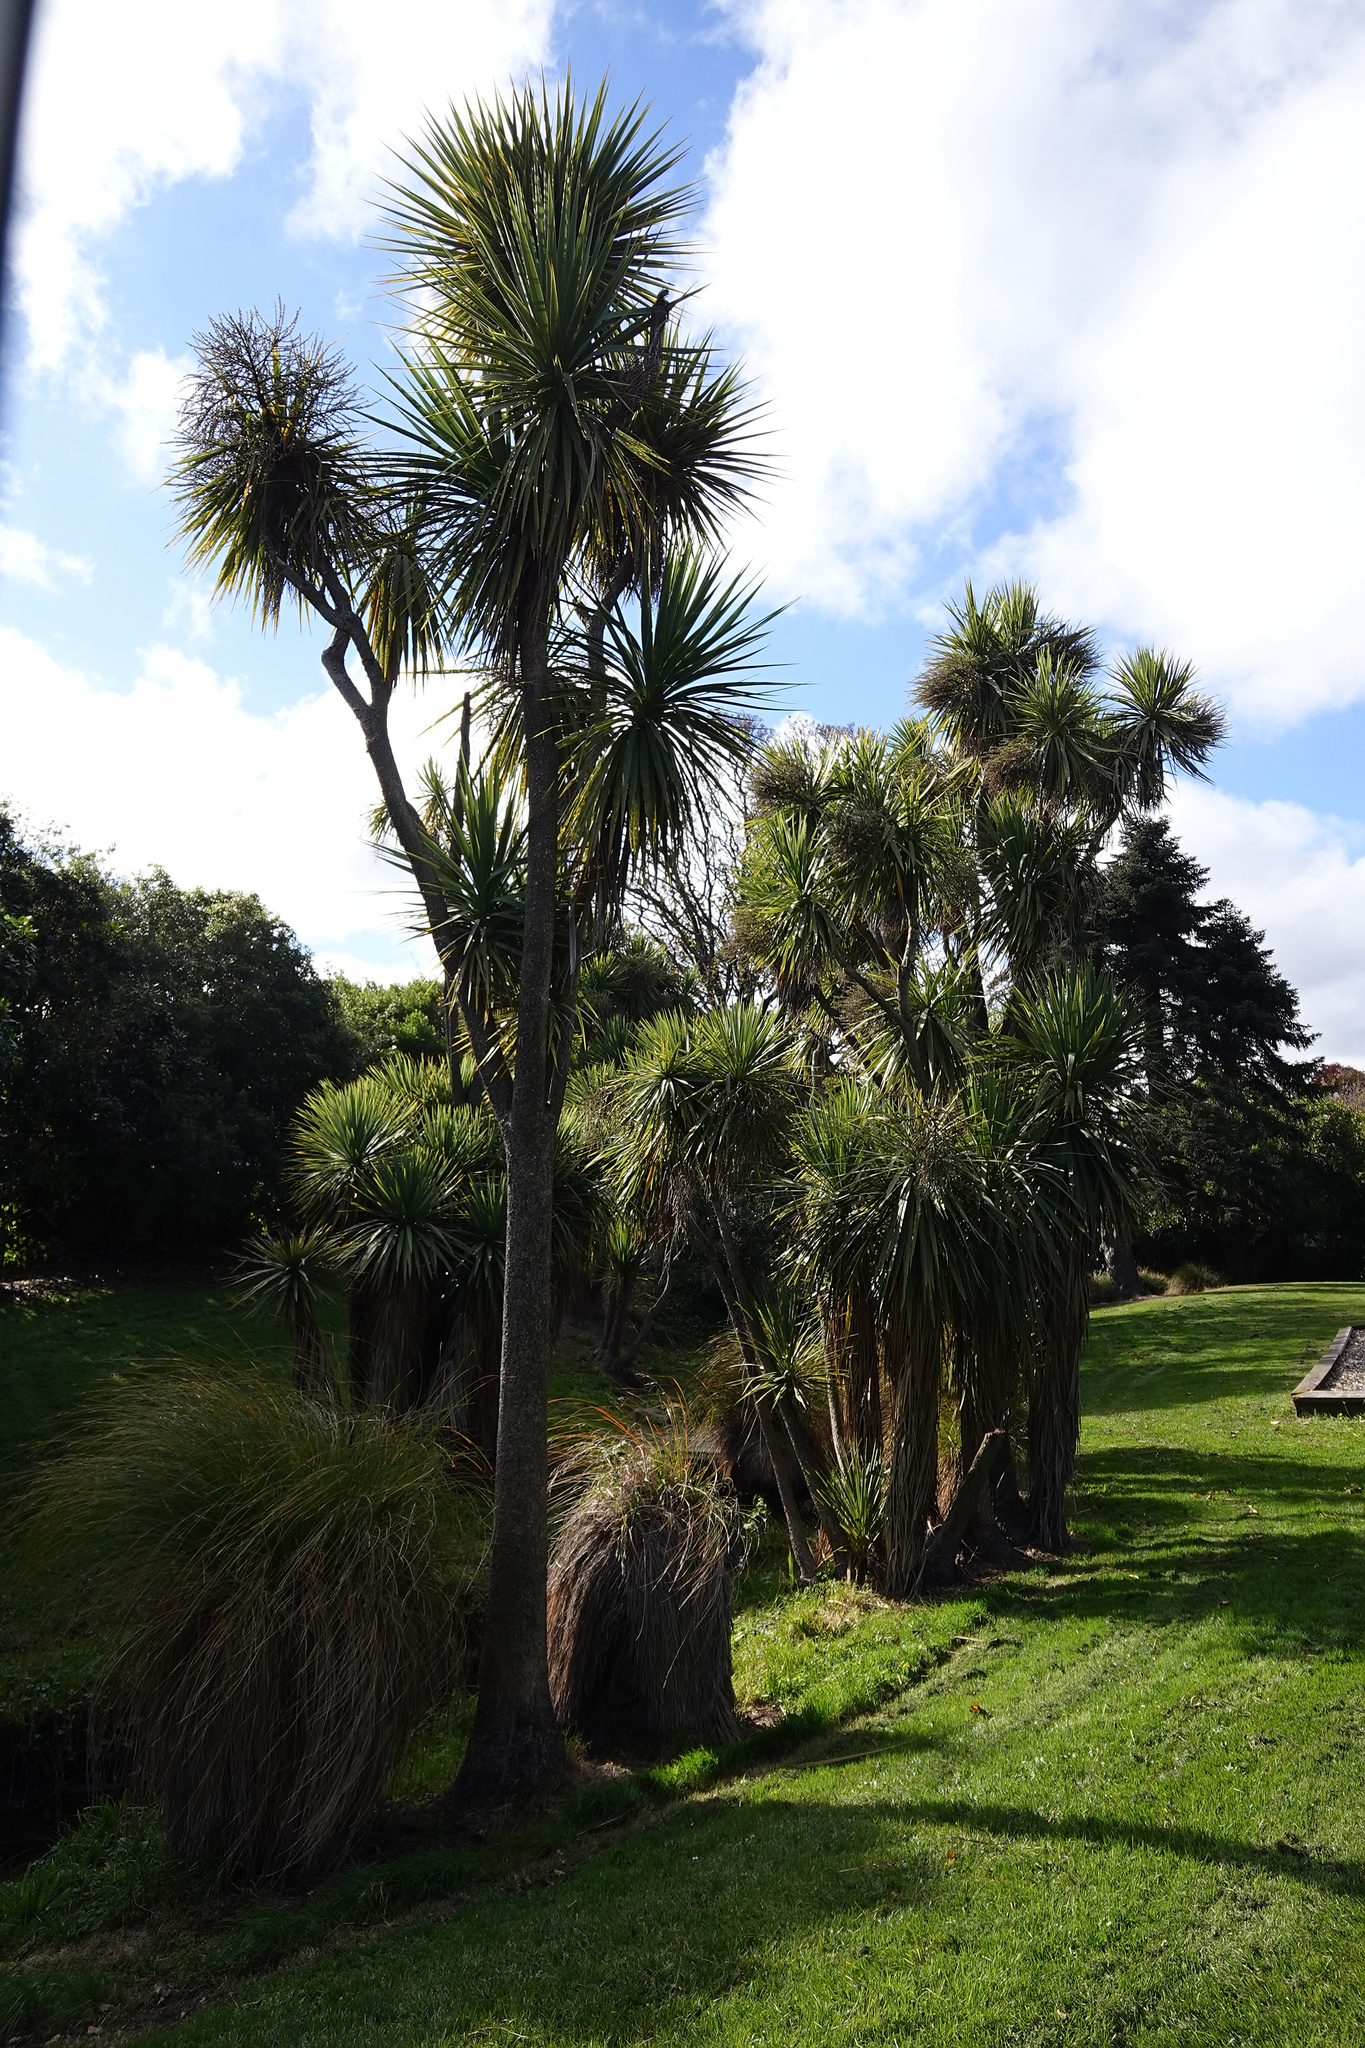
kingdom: Plantae
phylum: Tracheophyta
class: Liliopsida
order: Asparagales
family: Asparagaceae
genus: Cordyline
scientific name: Cordyline australis
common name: Cabbage-palm
